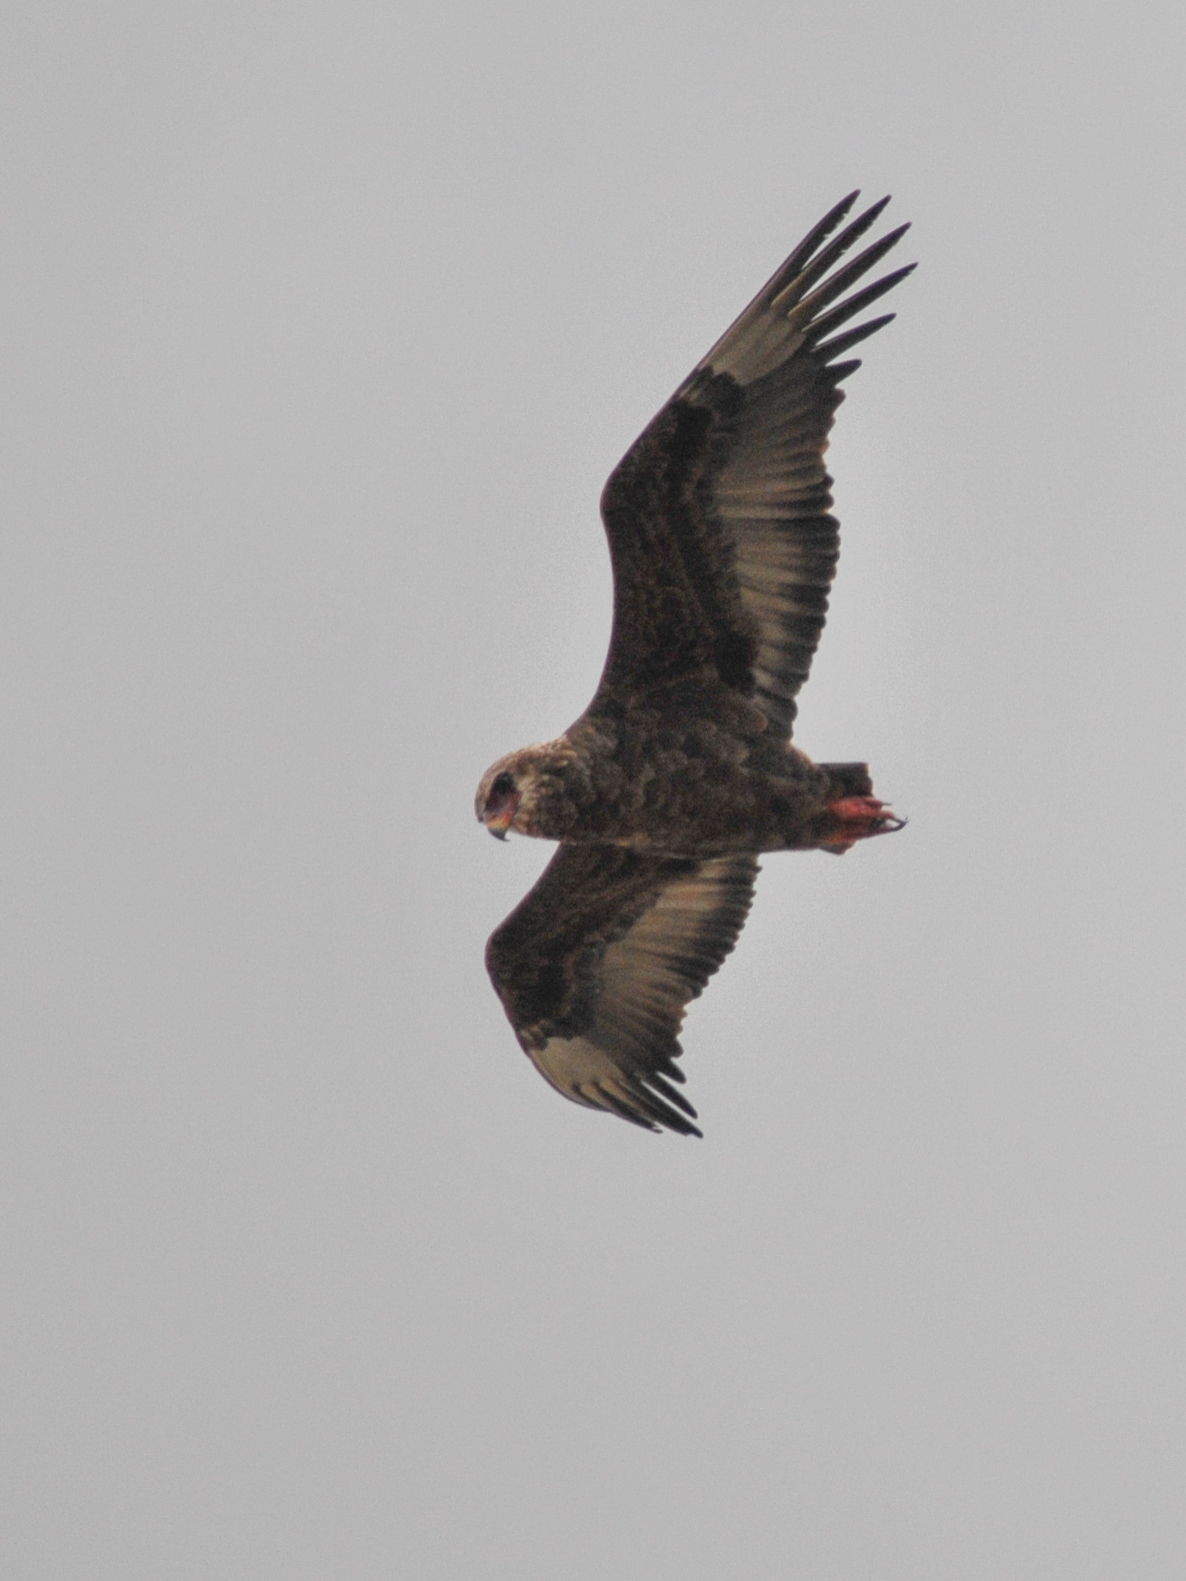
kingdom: Animalia
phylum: Chordata
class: Aves
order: Accipitriformes
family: Accipitridae
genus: Terathopius
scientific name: Terathopius ecaudatus
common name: Bateleur
